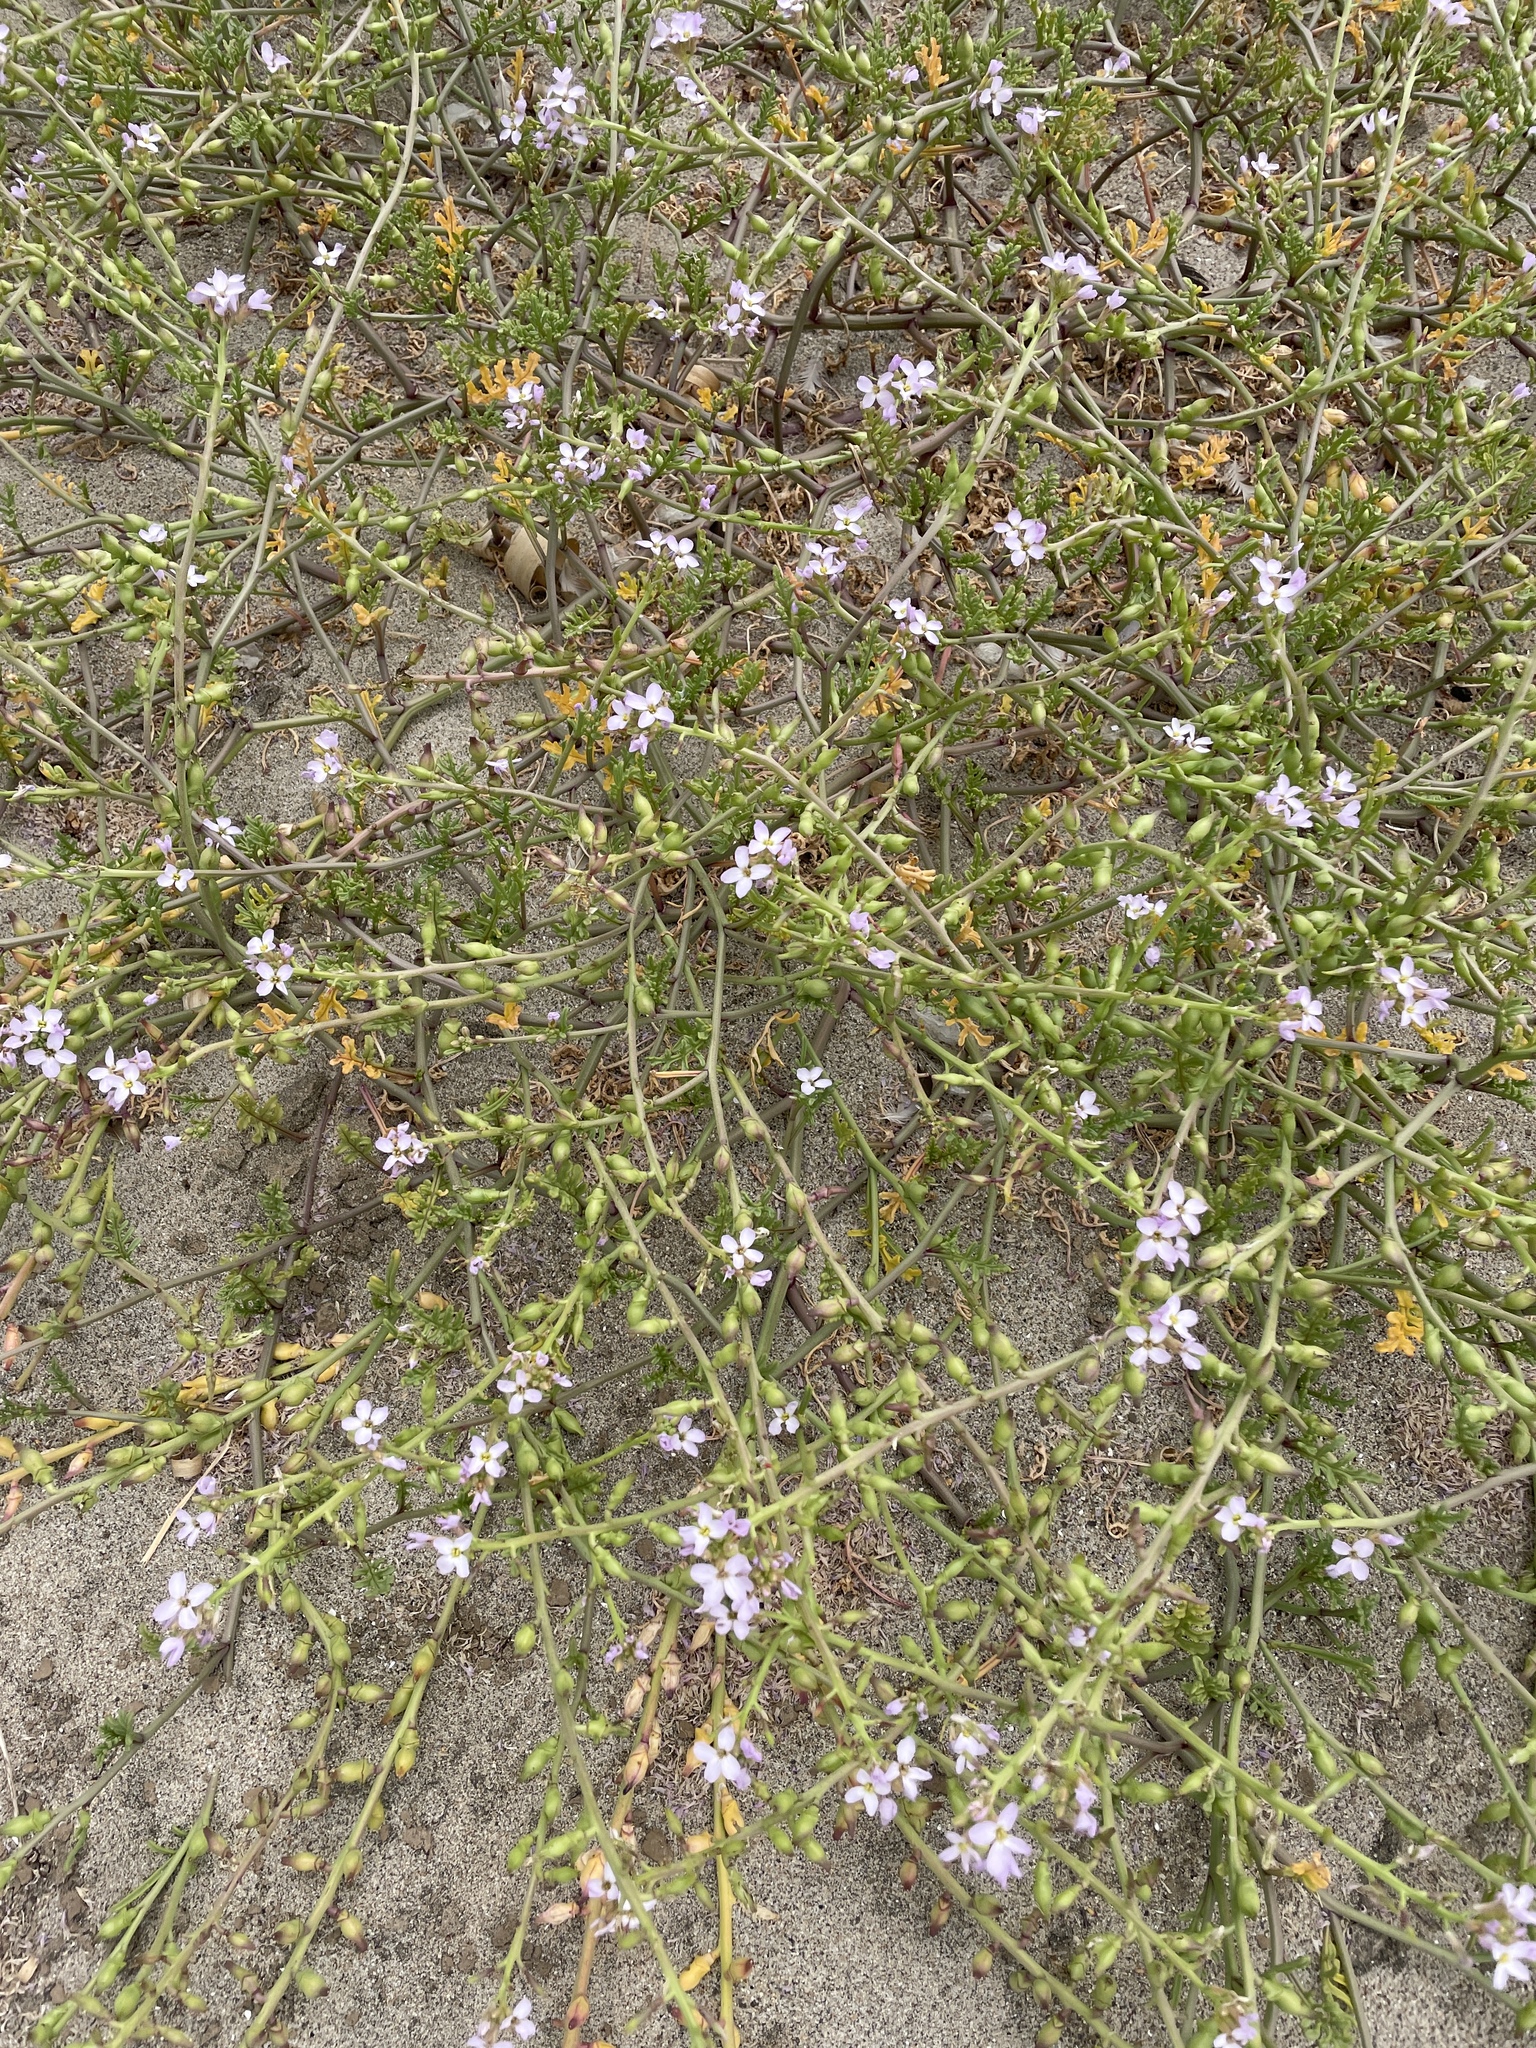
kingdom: Plantae
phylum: Tracheophyta
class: Magnoliopsida
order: Brassicales
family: Brassicaceae
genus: Cakile
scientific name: Cakile maritima
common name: Sea rocket
